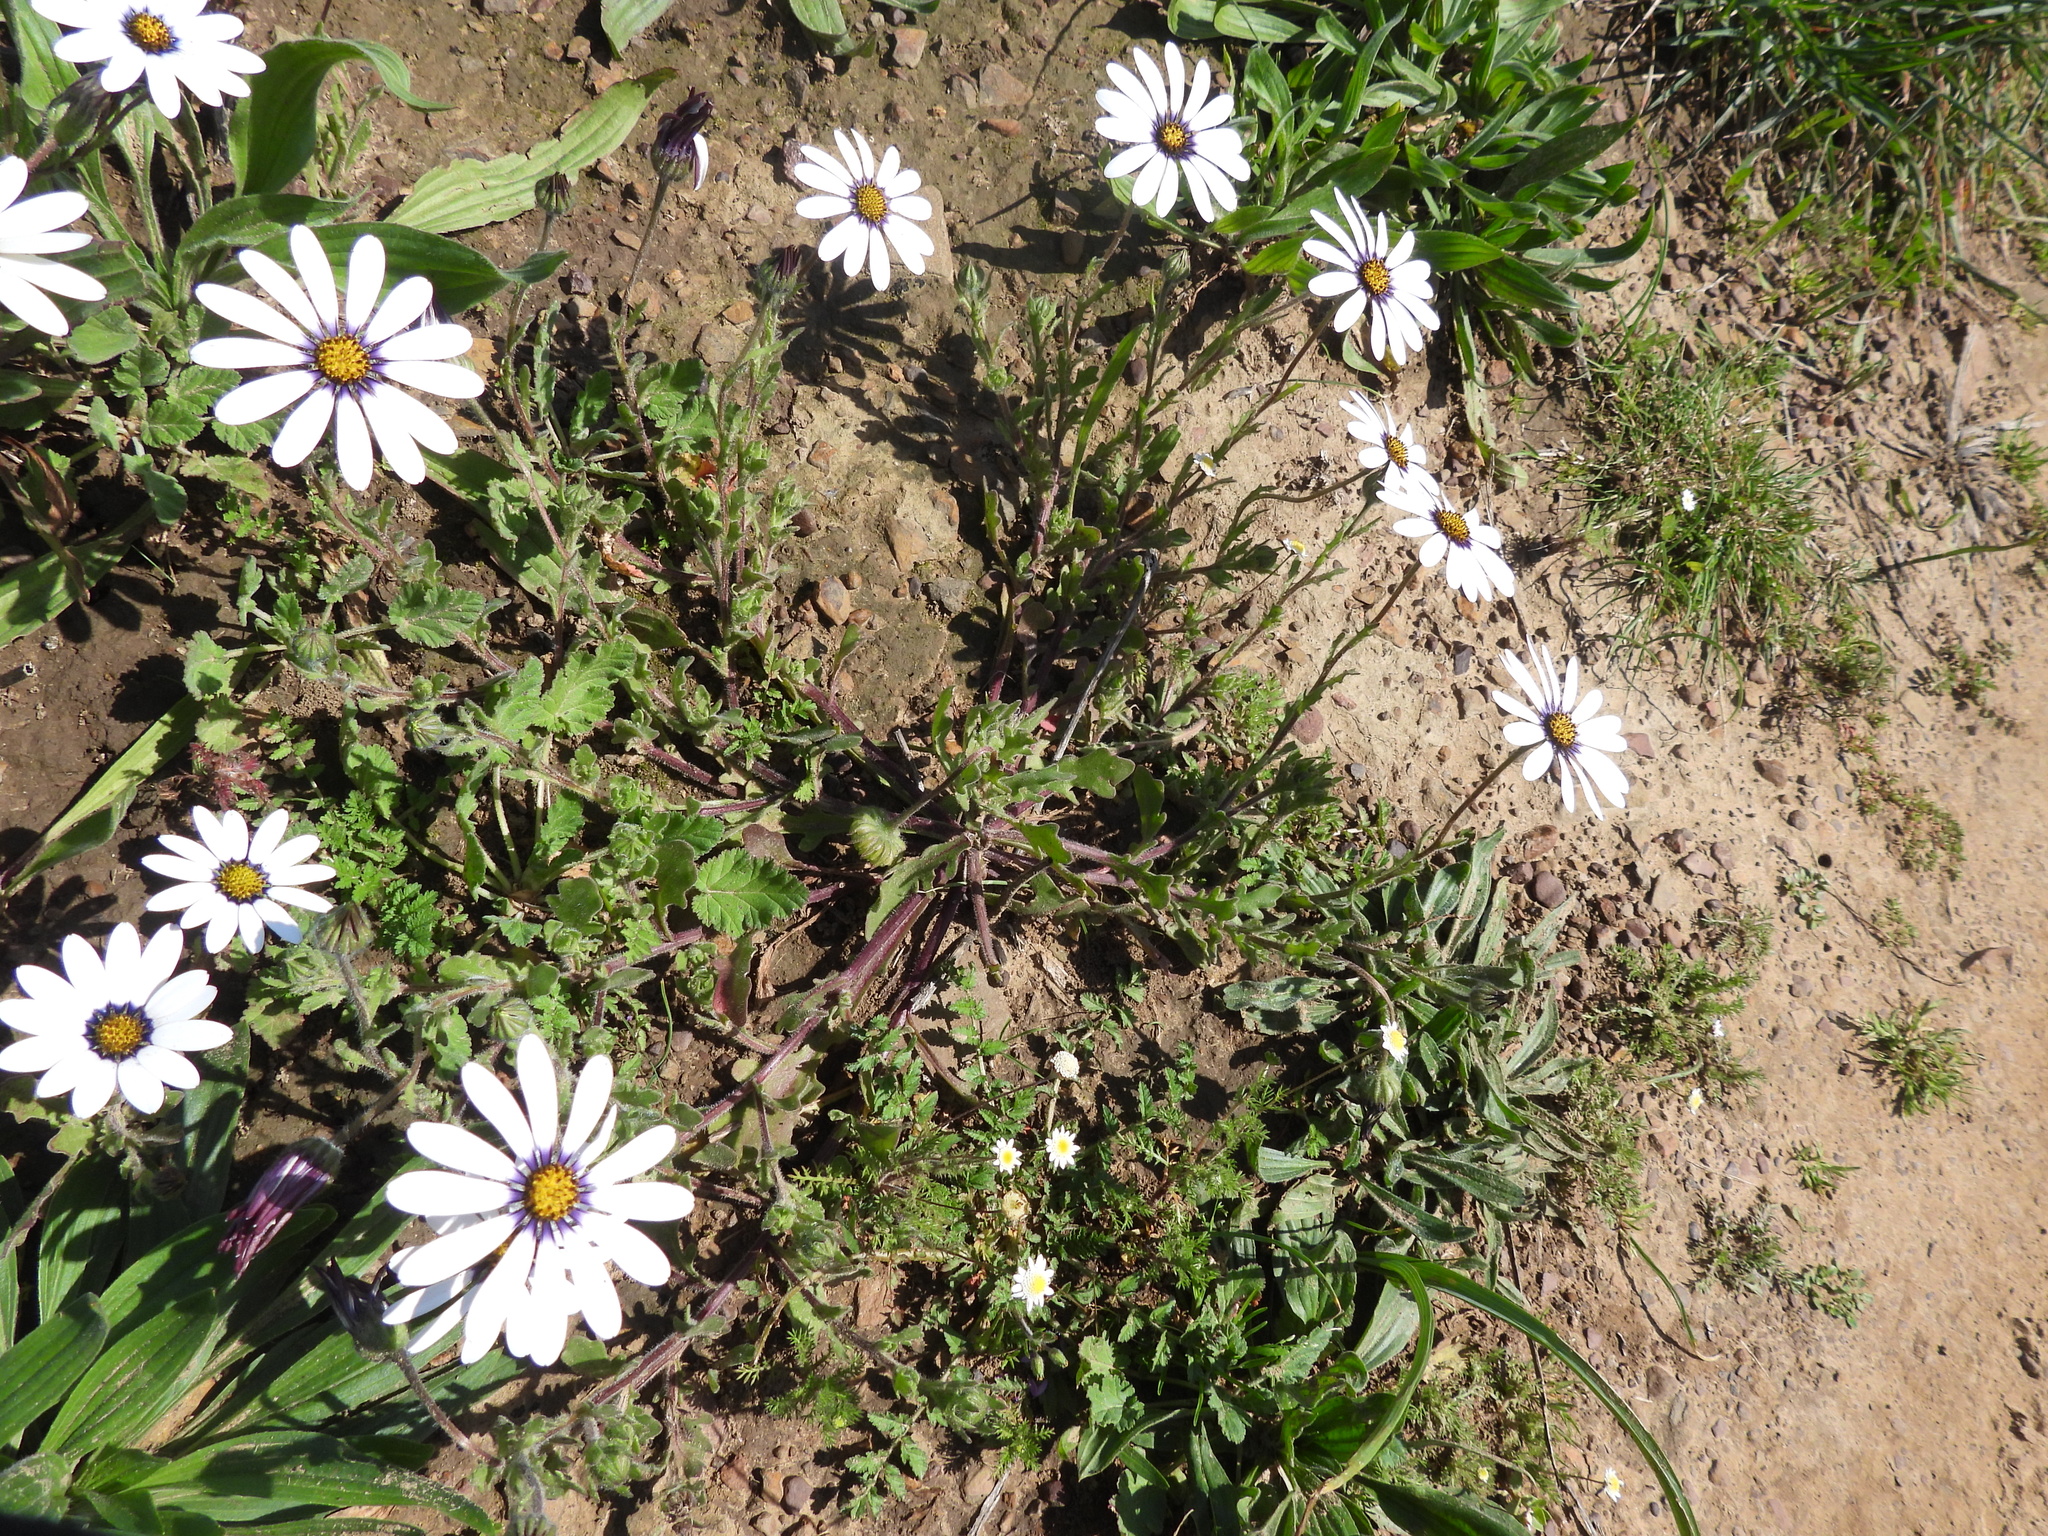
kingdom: Plantae
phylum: Tracheophyta
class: Magnoliopsida
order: Asterales
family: Asteraceae
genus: Dimorphotheca
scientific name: Dimorphotheca pluvialis
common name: Weather prophet
